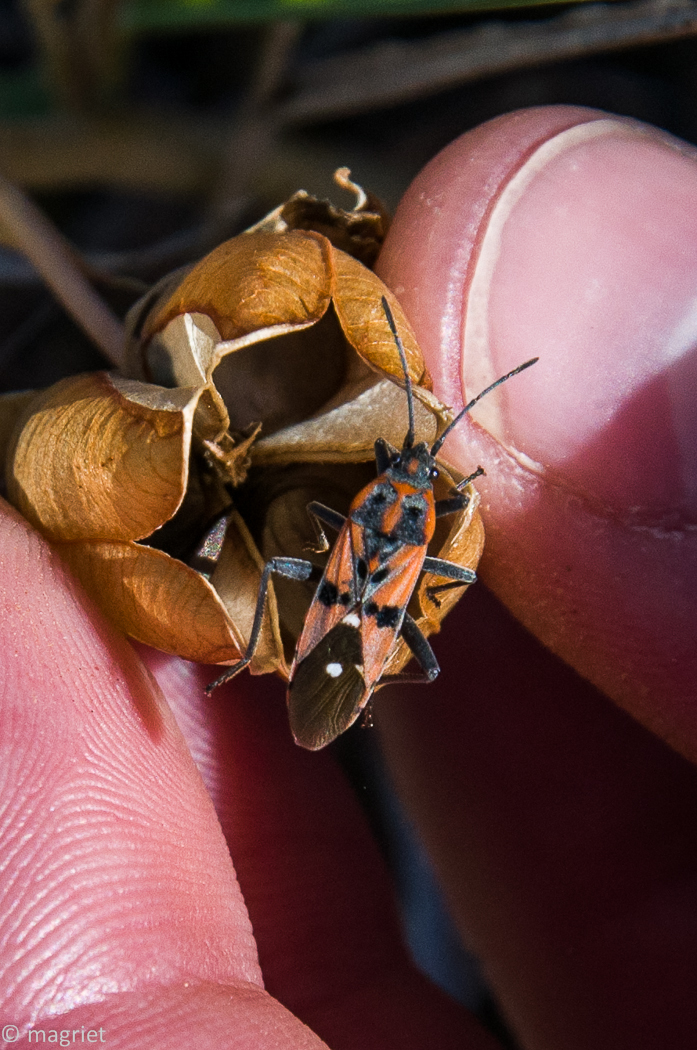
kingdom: Animalia
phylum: Arthropoda
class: Insecta
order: Hemiptera
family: Lygaeidae
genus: Spilostethus
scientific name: Spilostethus macilentus
